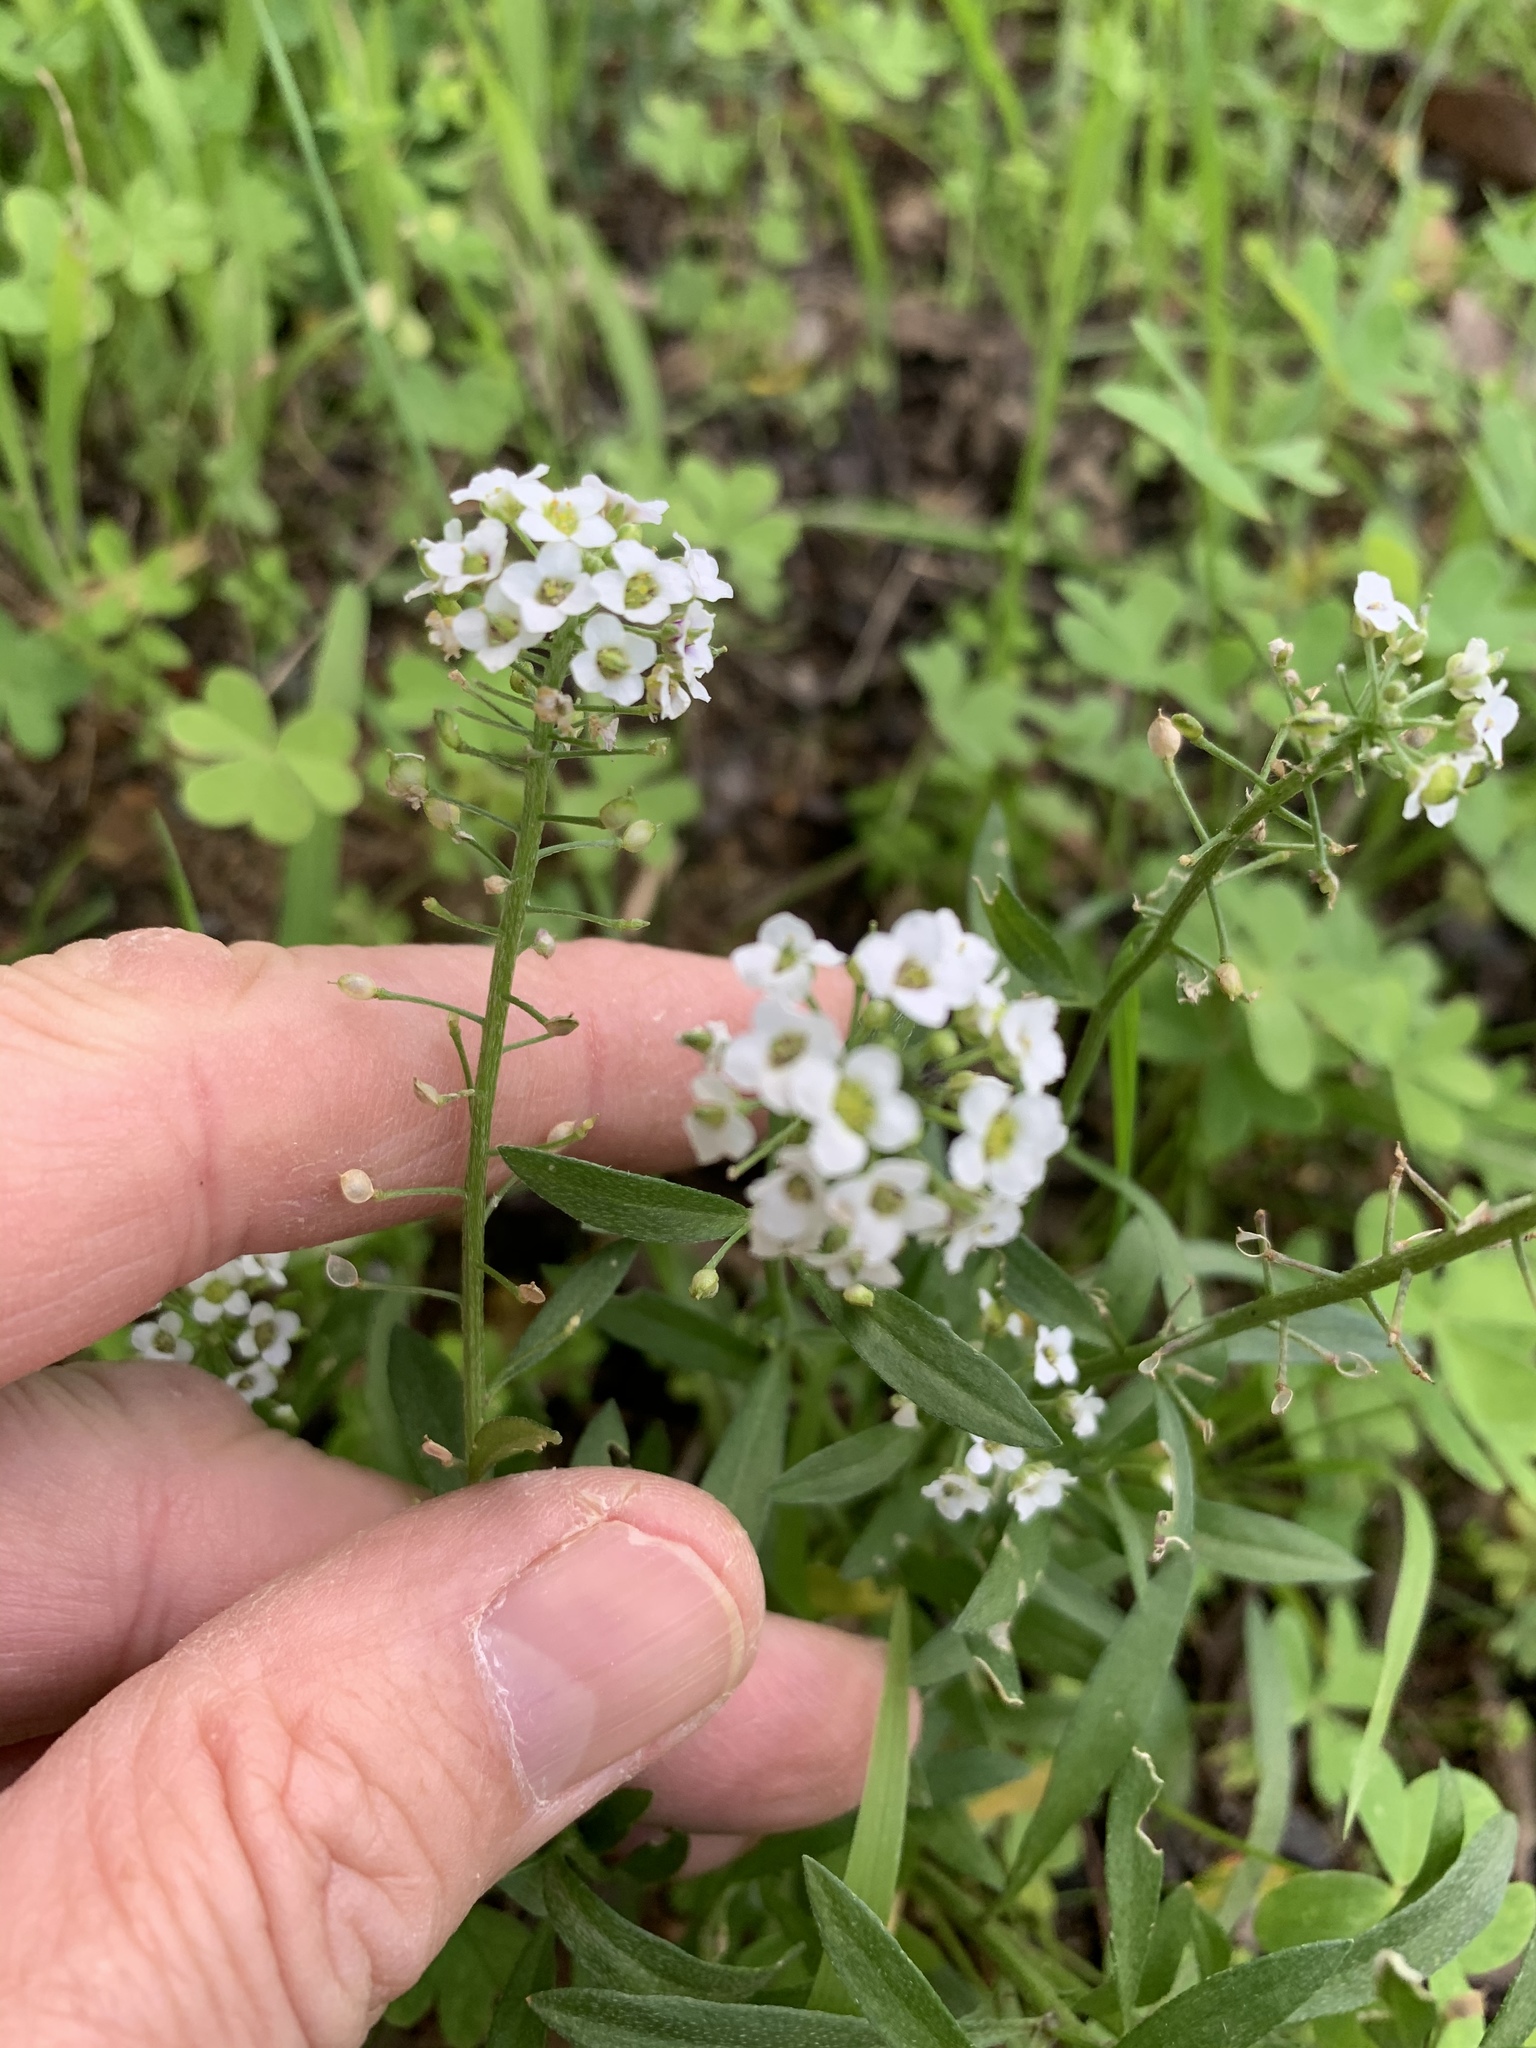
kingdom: Plantae
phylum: Tracheophyta
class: Magnoliopsida
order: Brassicales
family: Brassicaceae
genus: Lobularia
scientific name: Lobularia maritima
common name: Sweet alison
